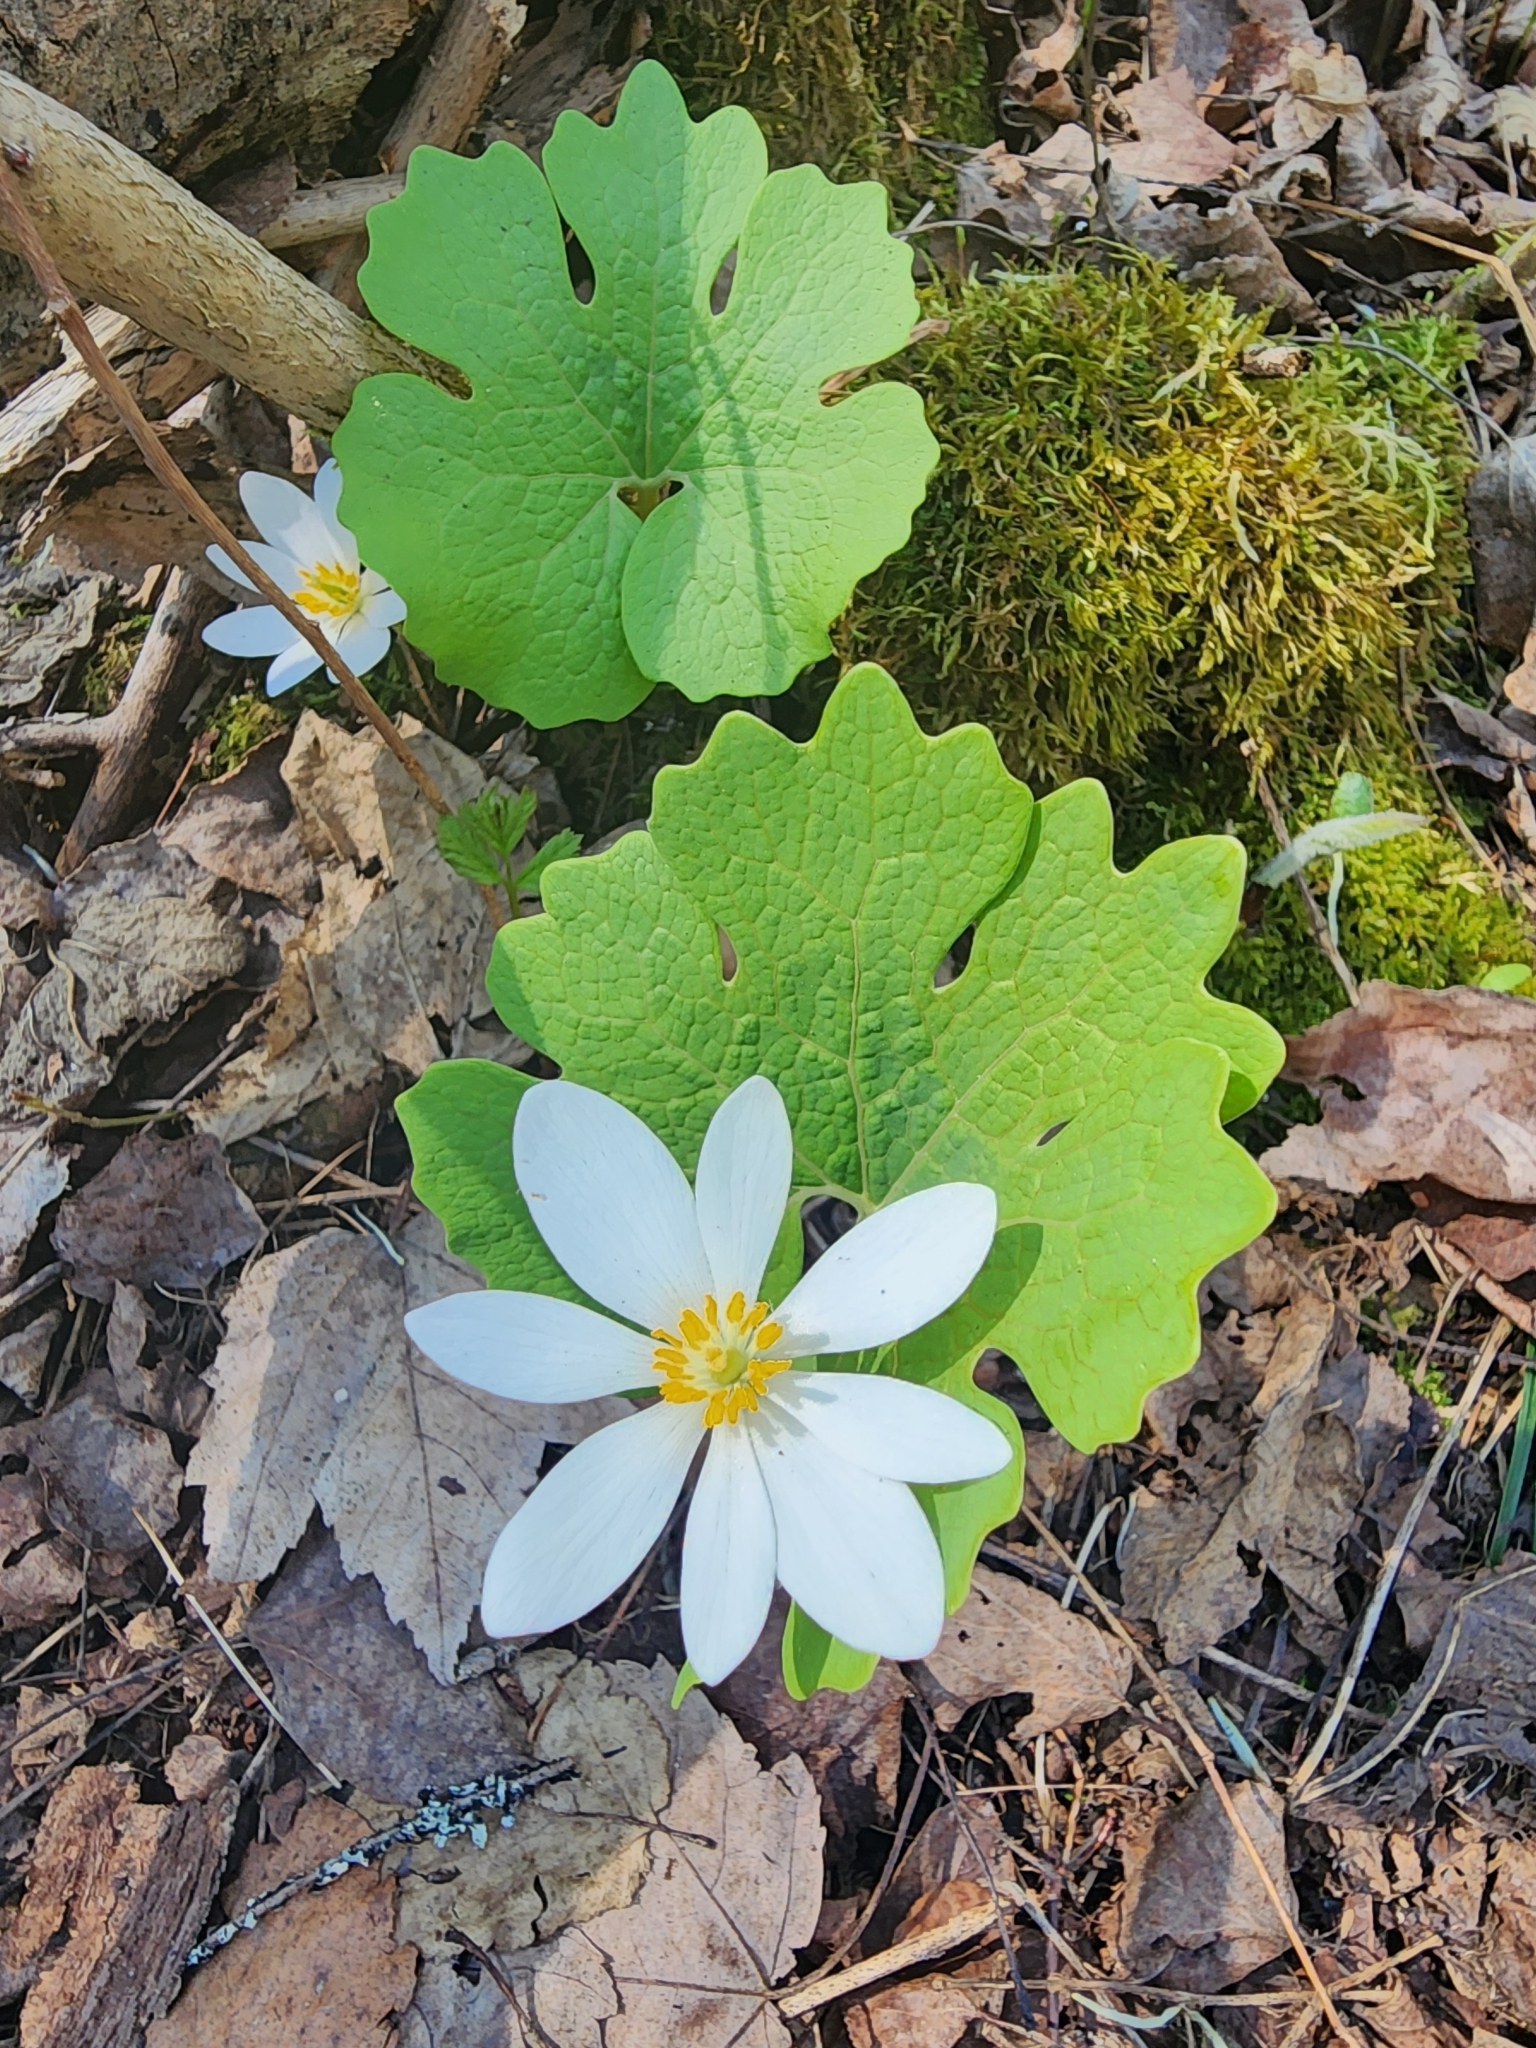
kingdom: Plantae
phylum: Tracheophyta
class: Magnoliopsida
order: Ranunculales
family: Papaveraceae
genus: Sanguinaria
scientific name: Sanguinaria canadensis
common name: Bloodroot
